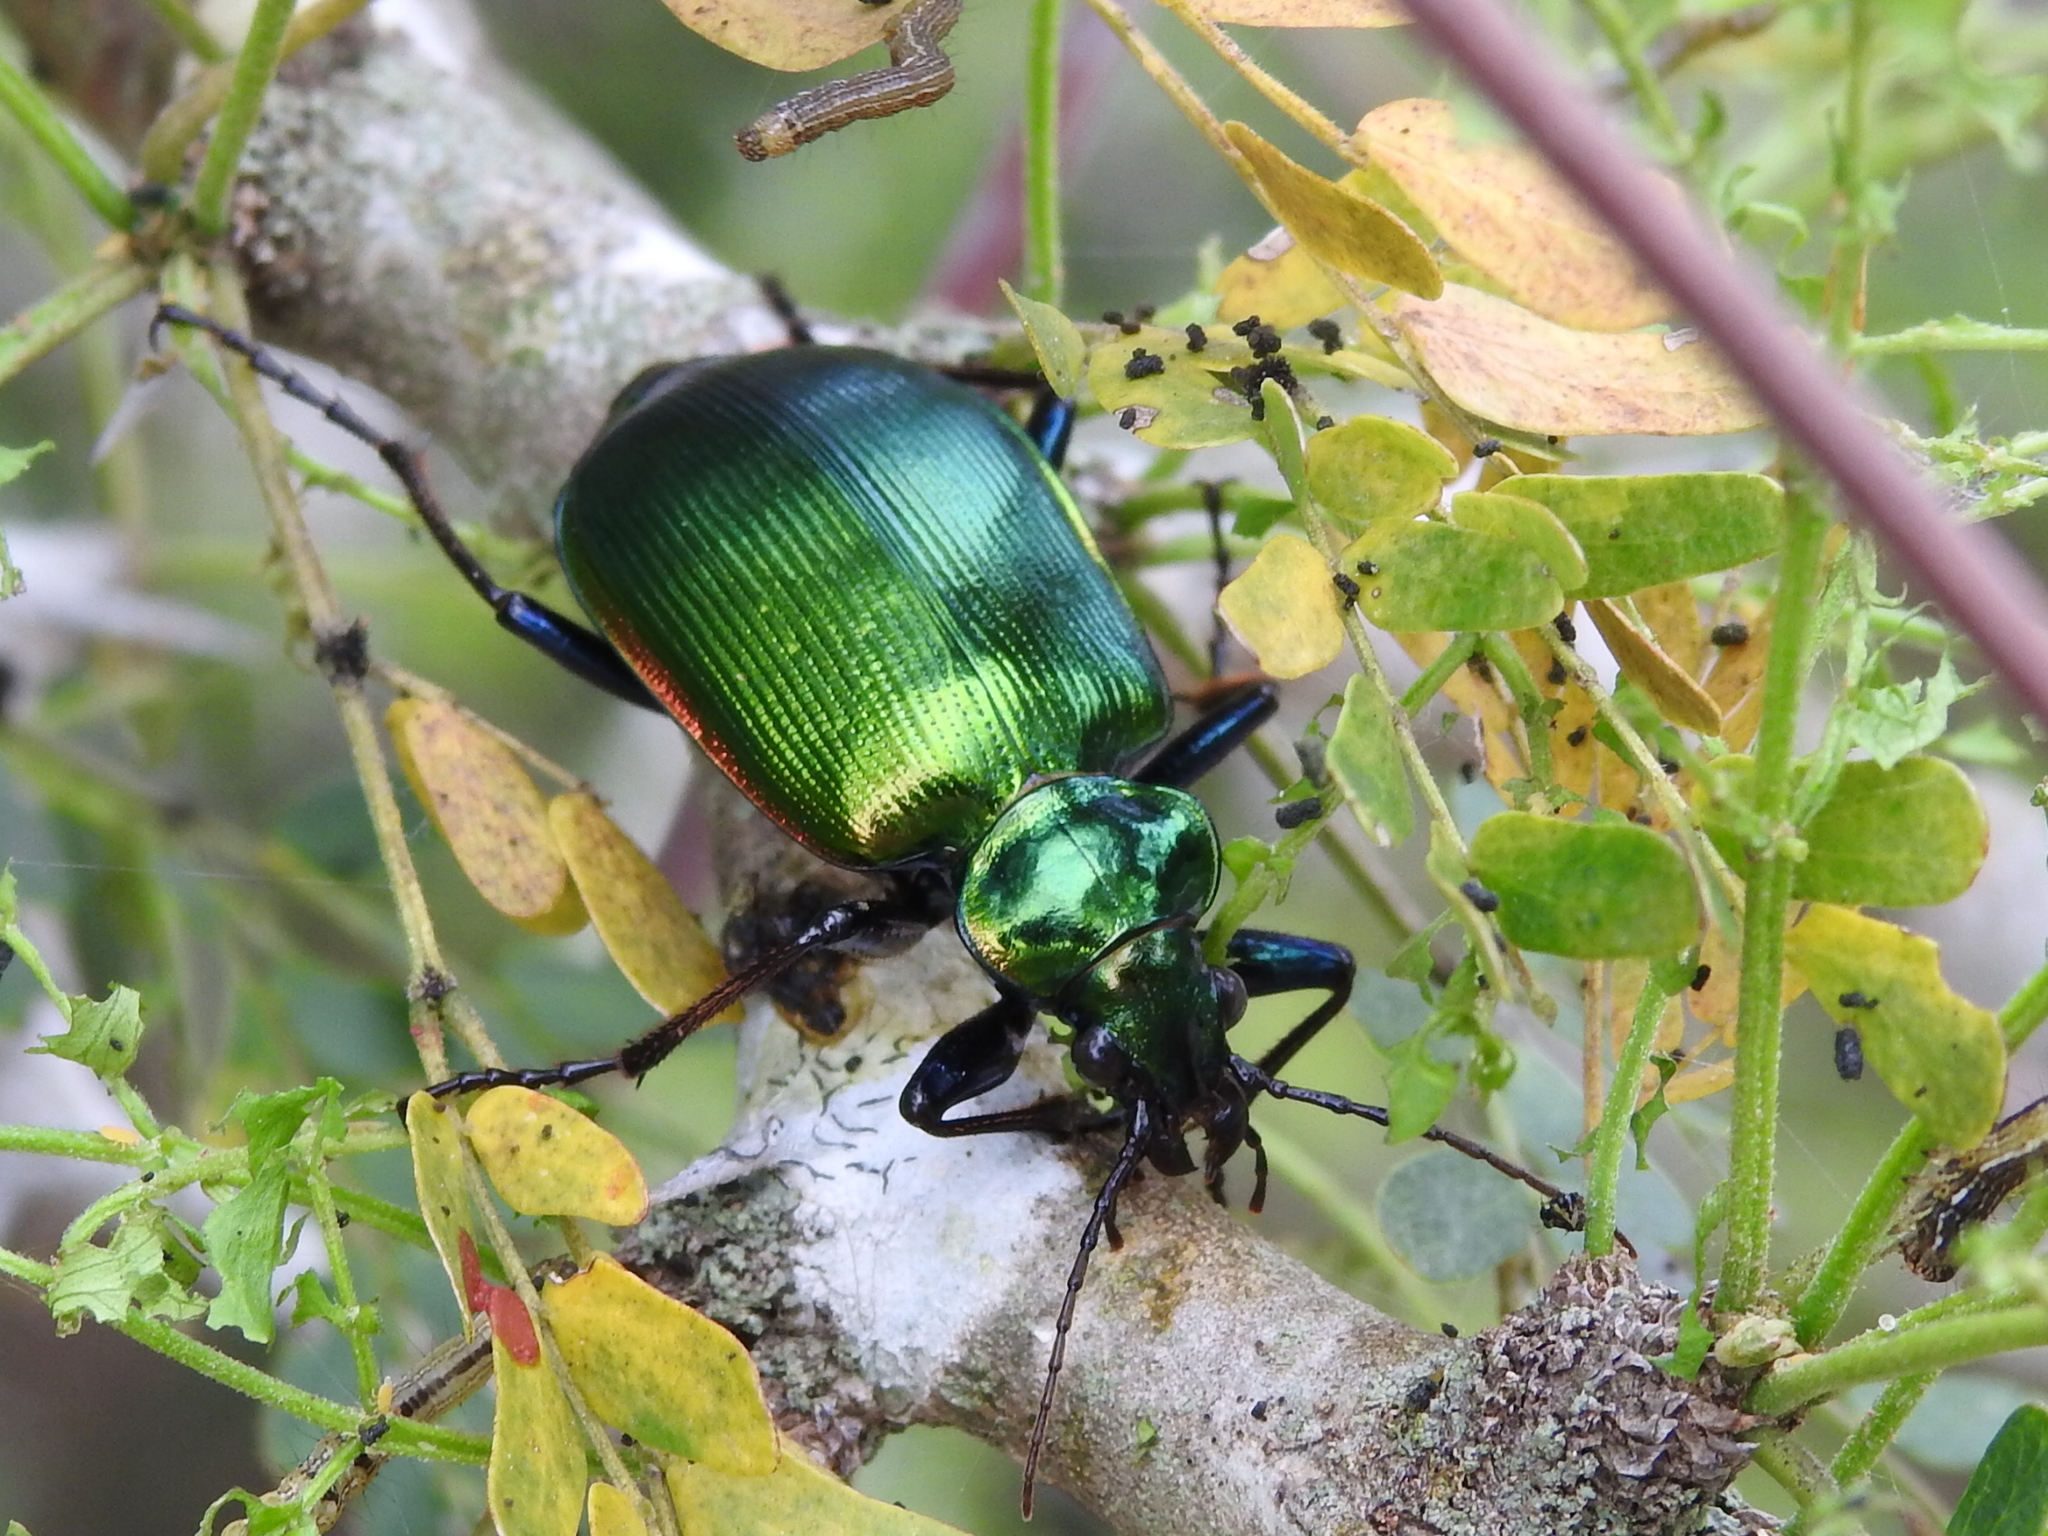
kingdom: Animalia
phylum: Arthropoda
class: Insecta
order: Coleoptera
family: Carabidae
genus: Calosoma
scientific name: Calosoma aurocinctum
